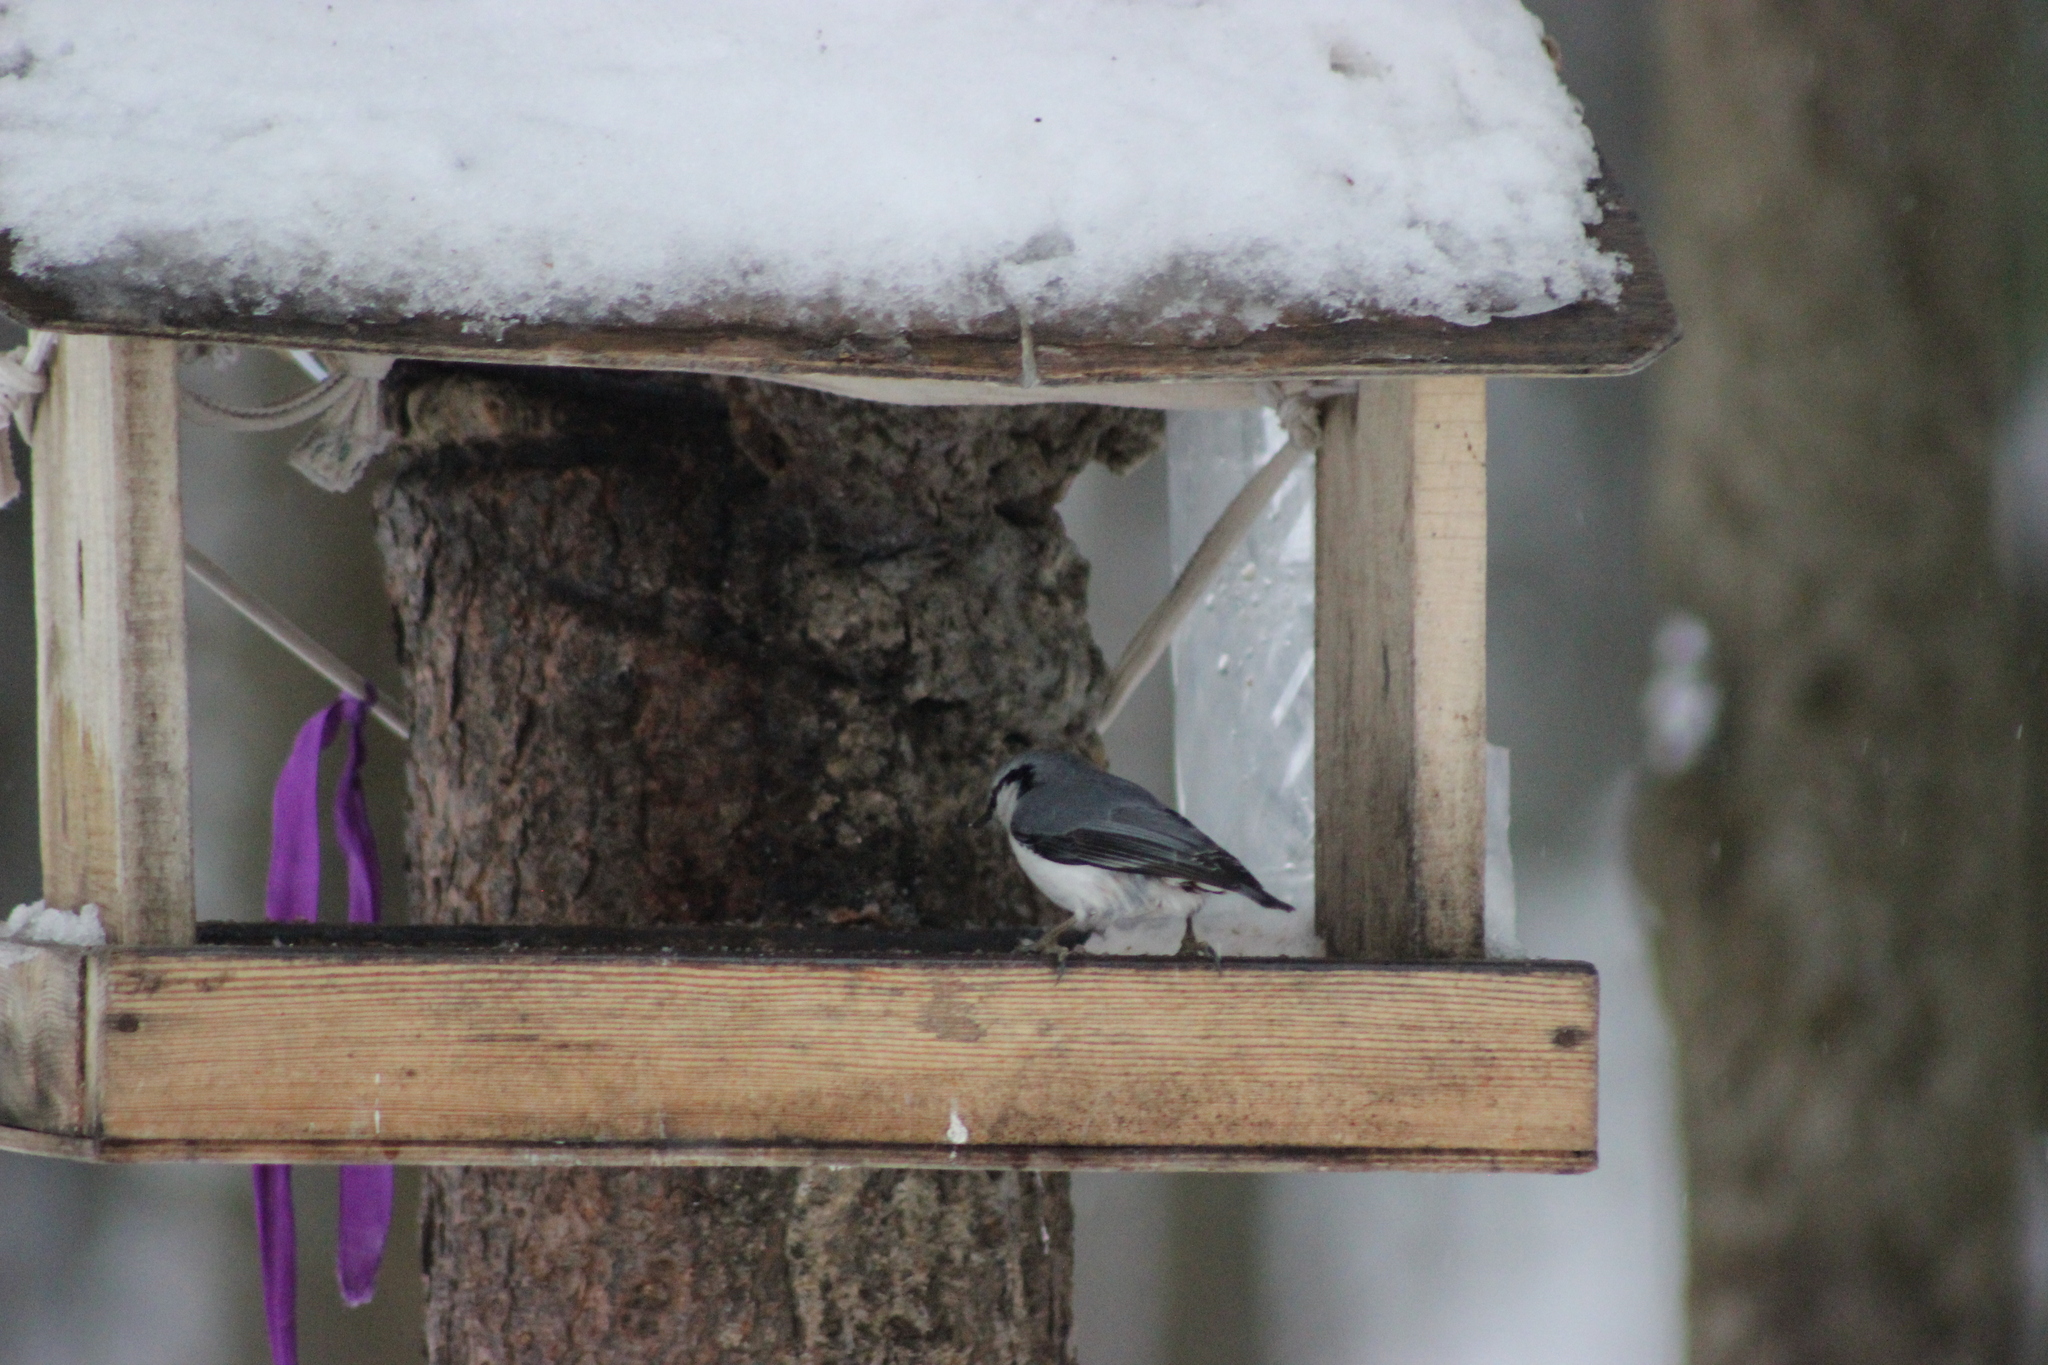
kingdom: Animalia
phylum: Chordata
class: Aves
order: Passeriformes
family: Sittidae
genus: Sitta
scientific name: Sitta europaea
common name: Eurasian nuthatch
